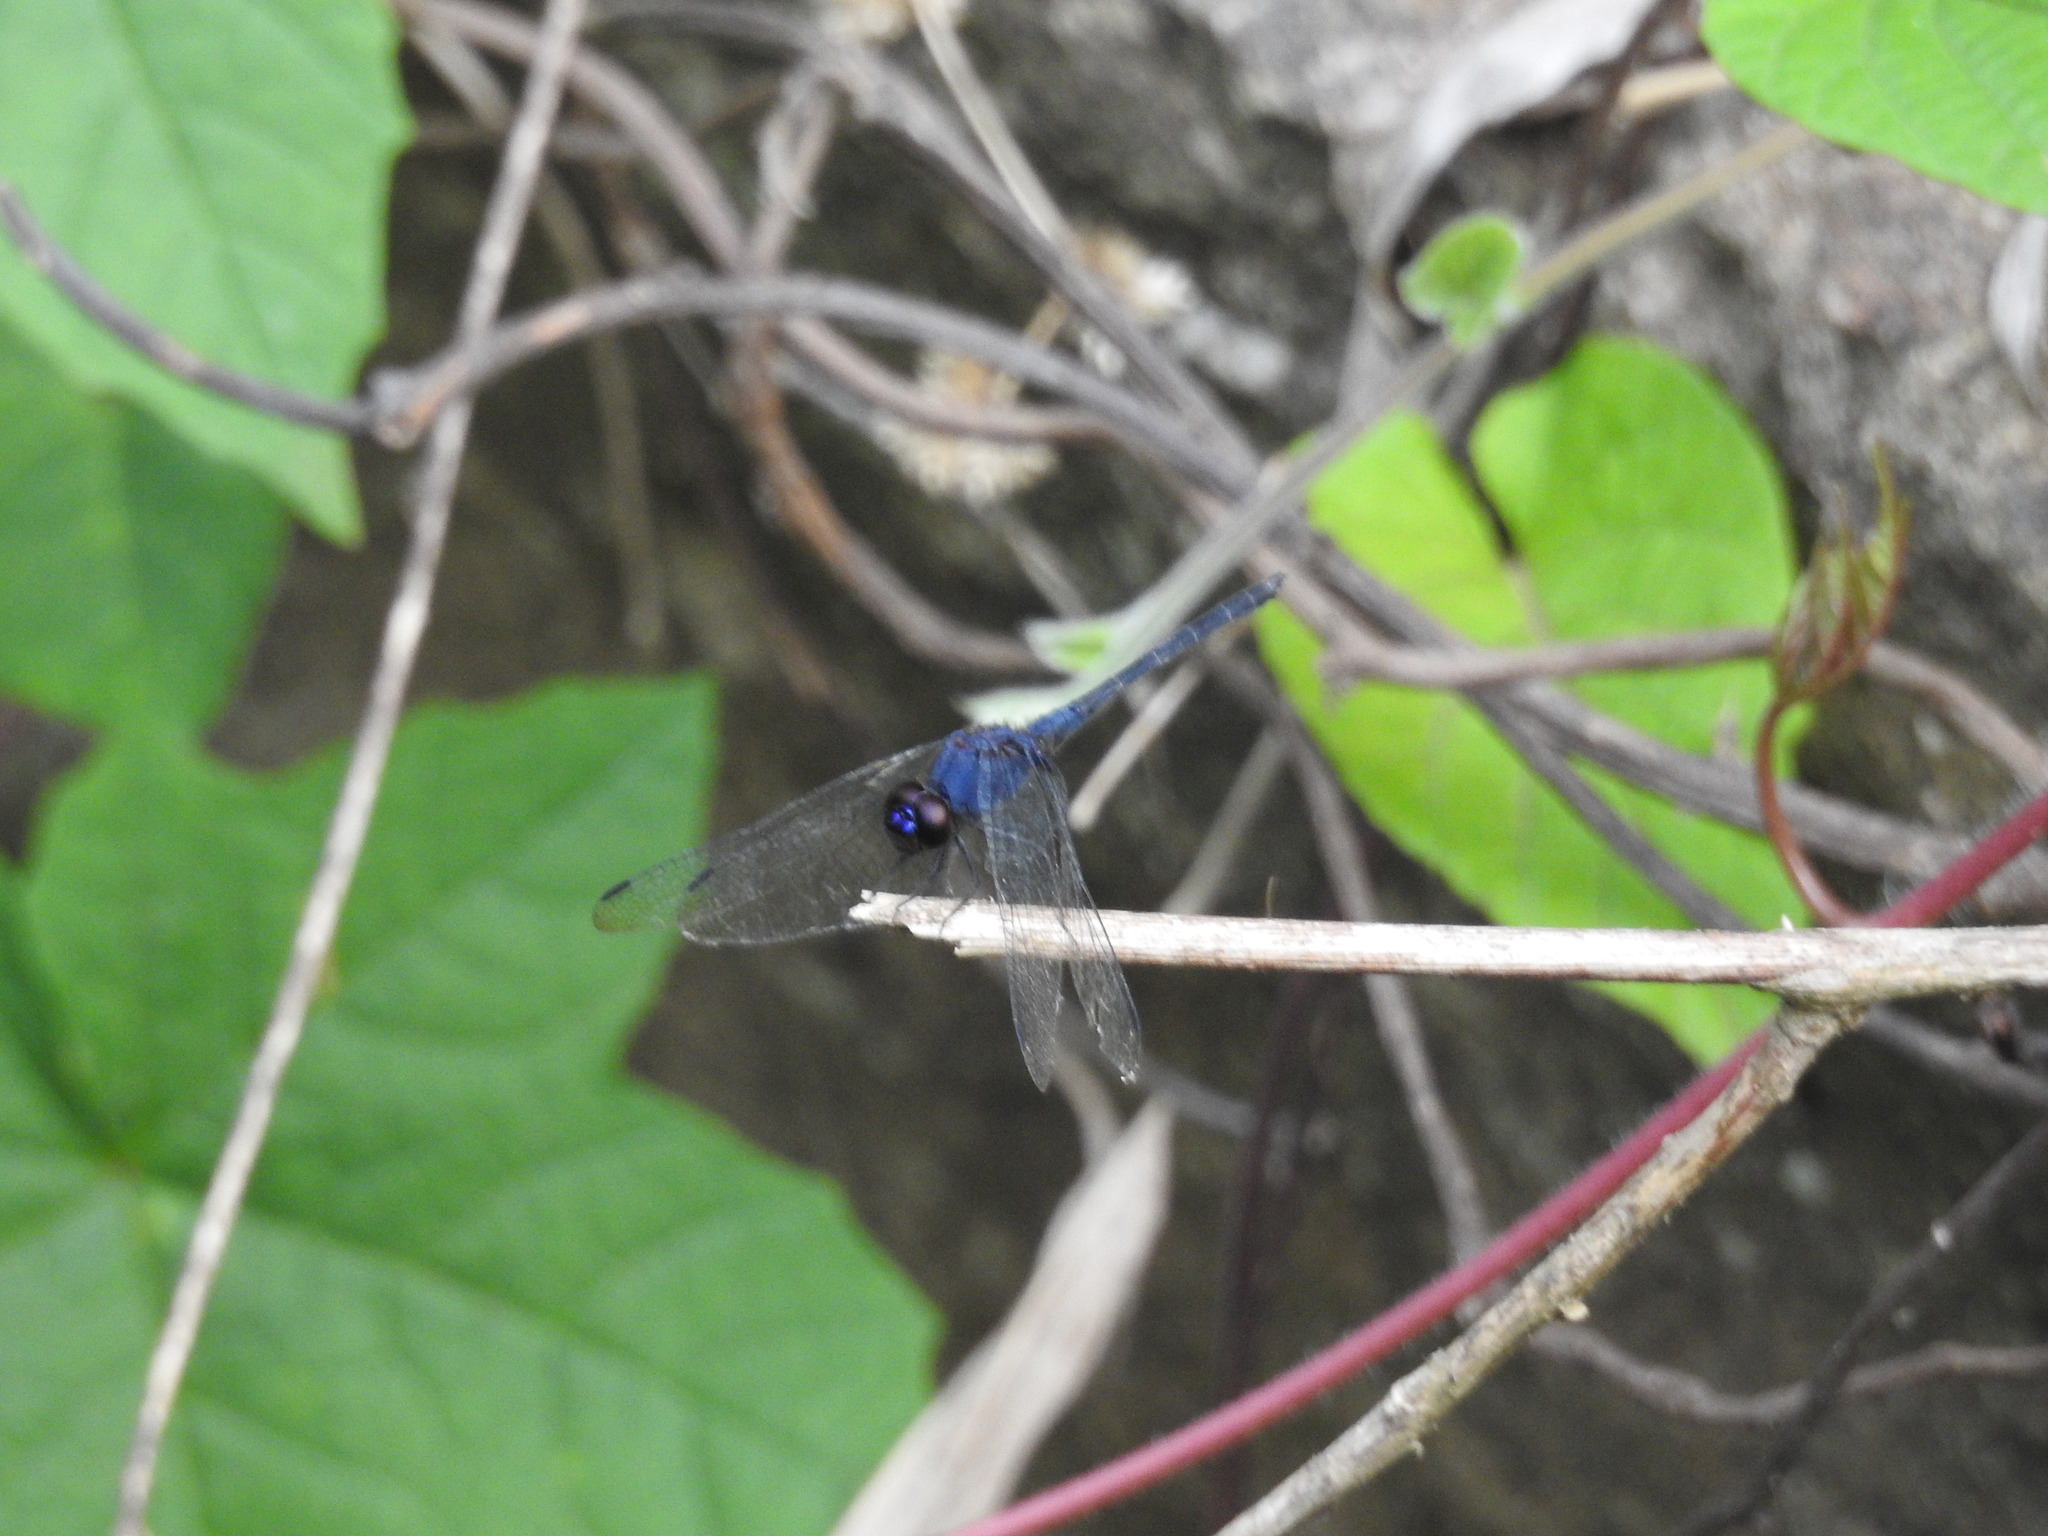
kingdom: Animalia
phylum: Arthropoda
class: Insecta
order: Odonata
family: Libellulidae
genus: Trithemis
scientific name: Trithemis festiva
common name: Indigo dropwing
